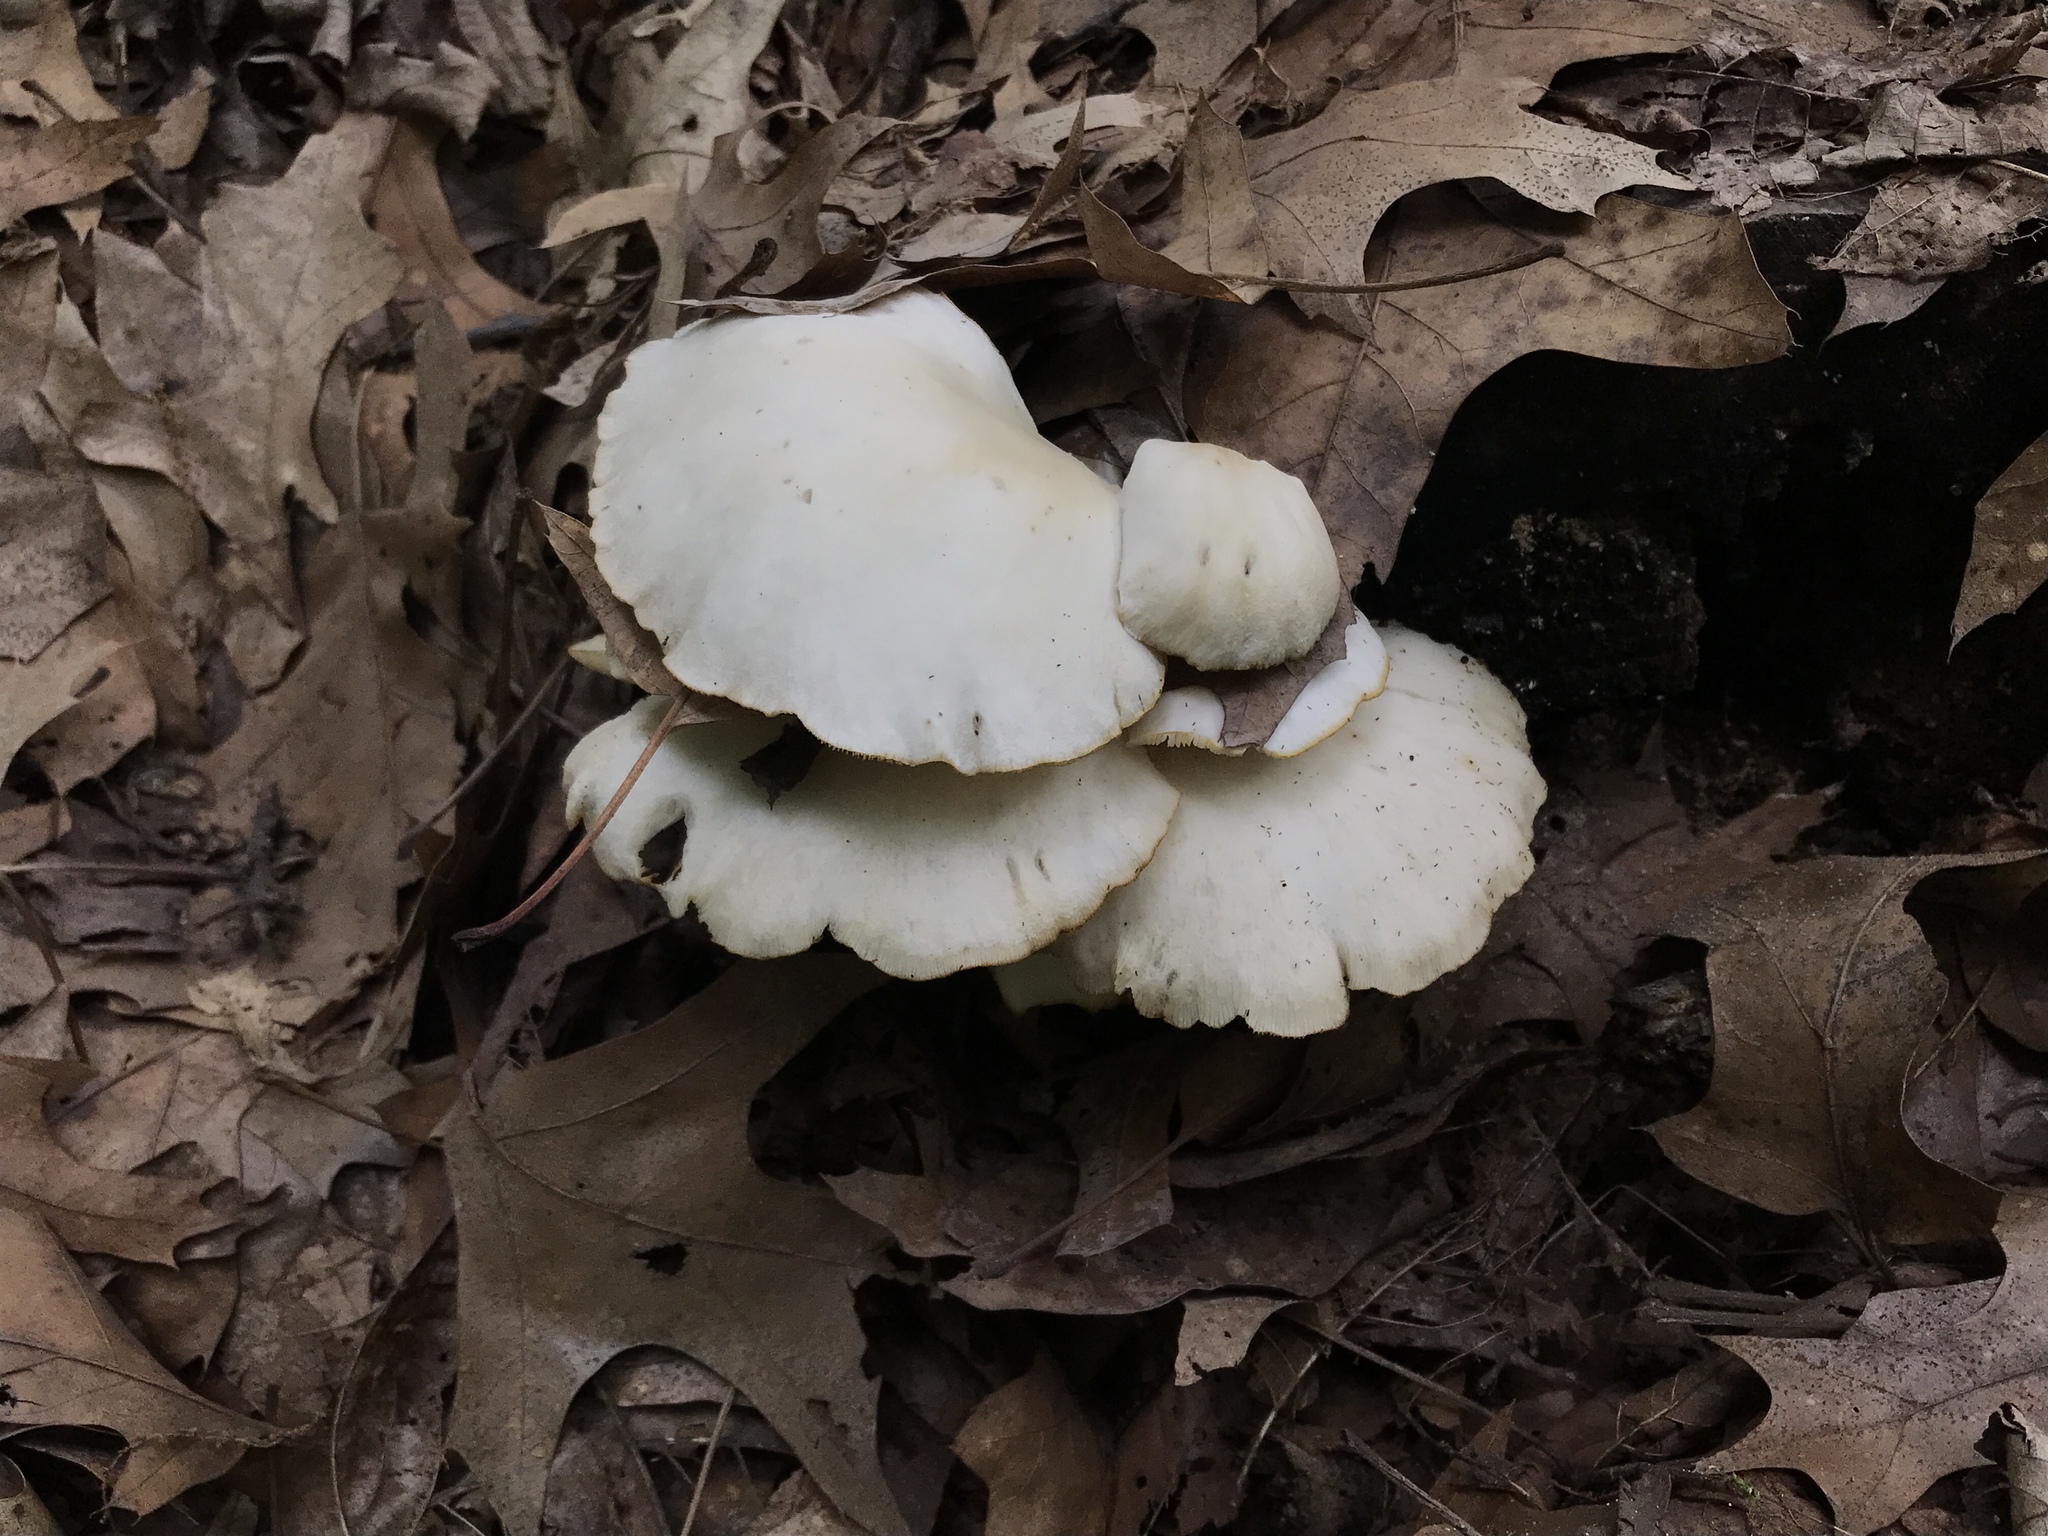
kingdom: Fungi
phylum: Basidiomycota
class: Agaricomycetes
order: Agaricales
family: Pleurotaceae
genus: Pleurotus
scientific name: Pleurotus pulmonarius
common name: Pale oyster
